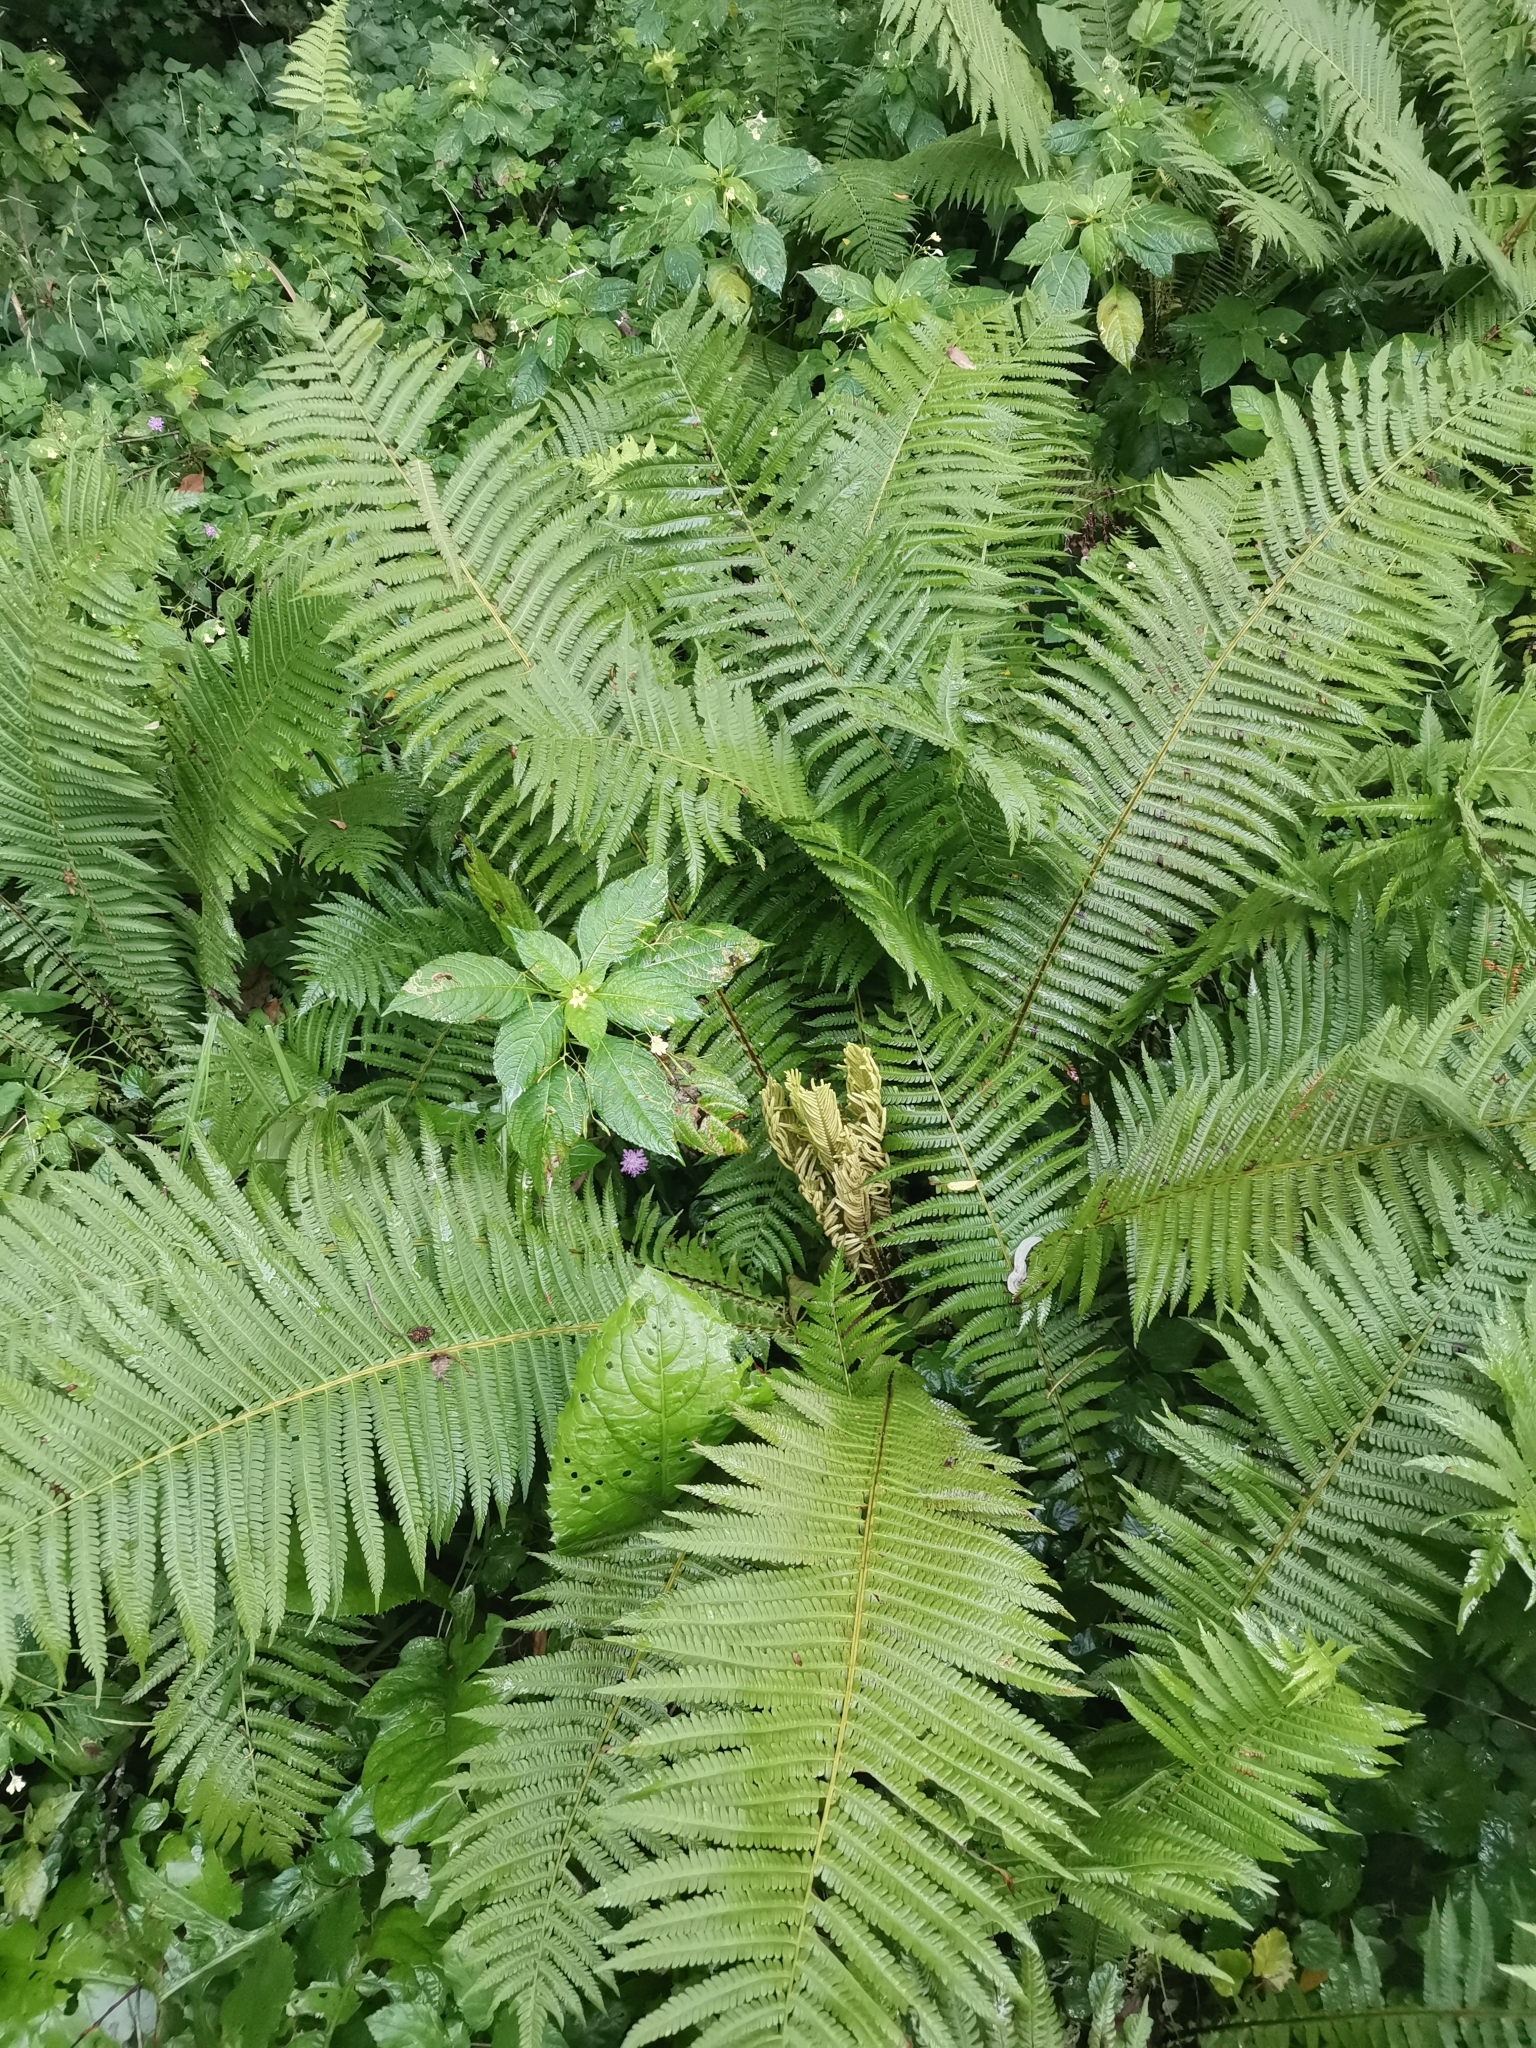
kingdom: Plantae
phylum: Tracheophyta
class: Polypodiopsida
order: Polypodiales
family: Onocleaceae
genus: Matteuccia
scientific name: Matteuccia struthiopteris
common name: Ostrich fern
